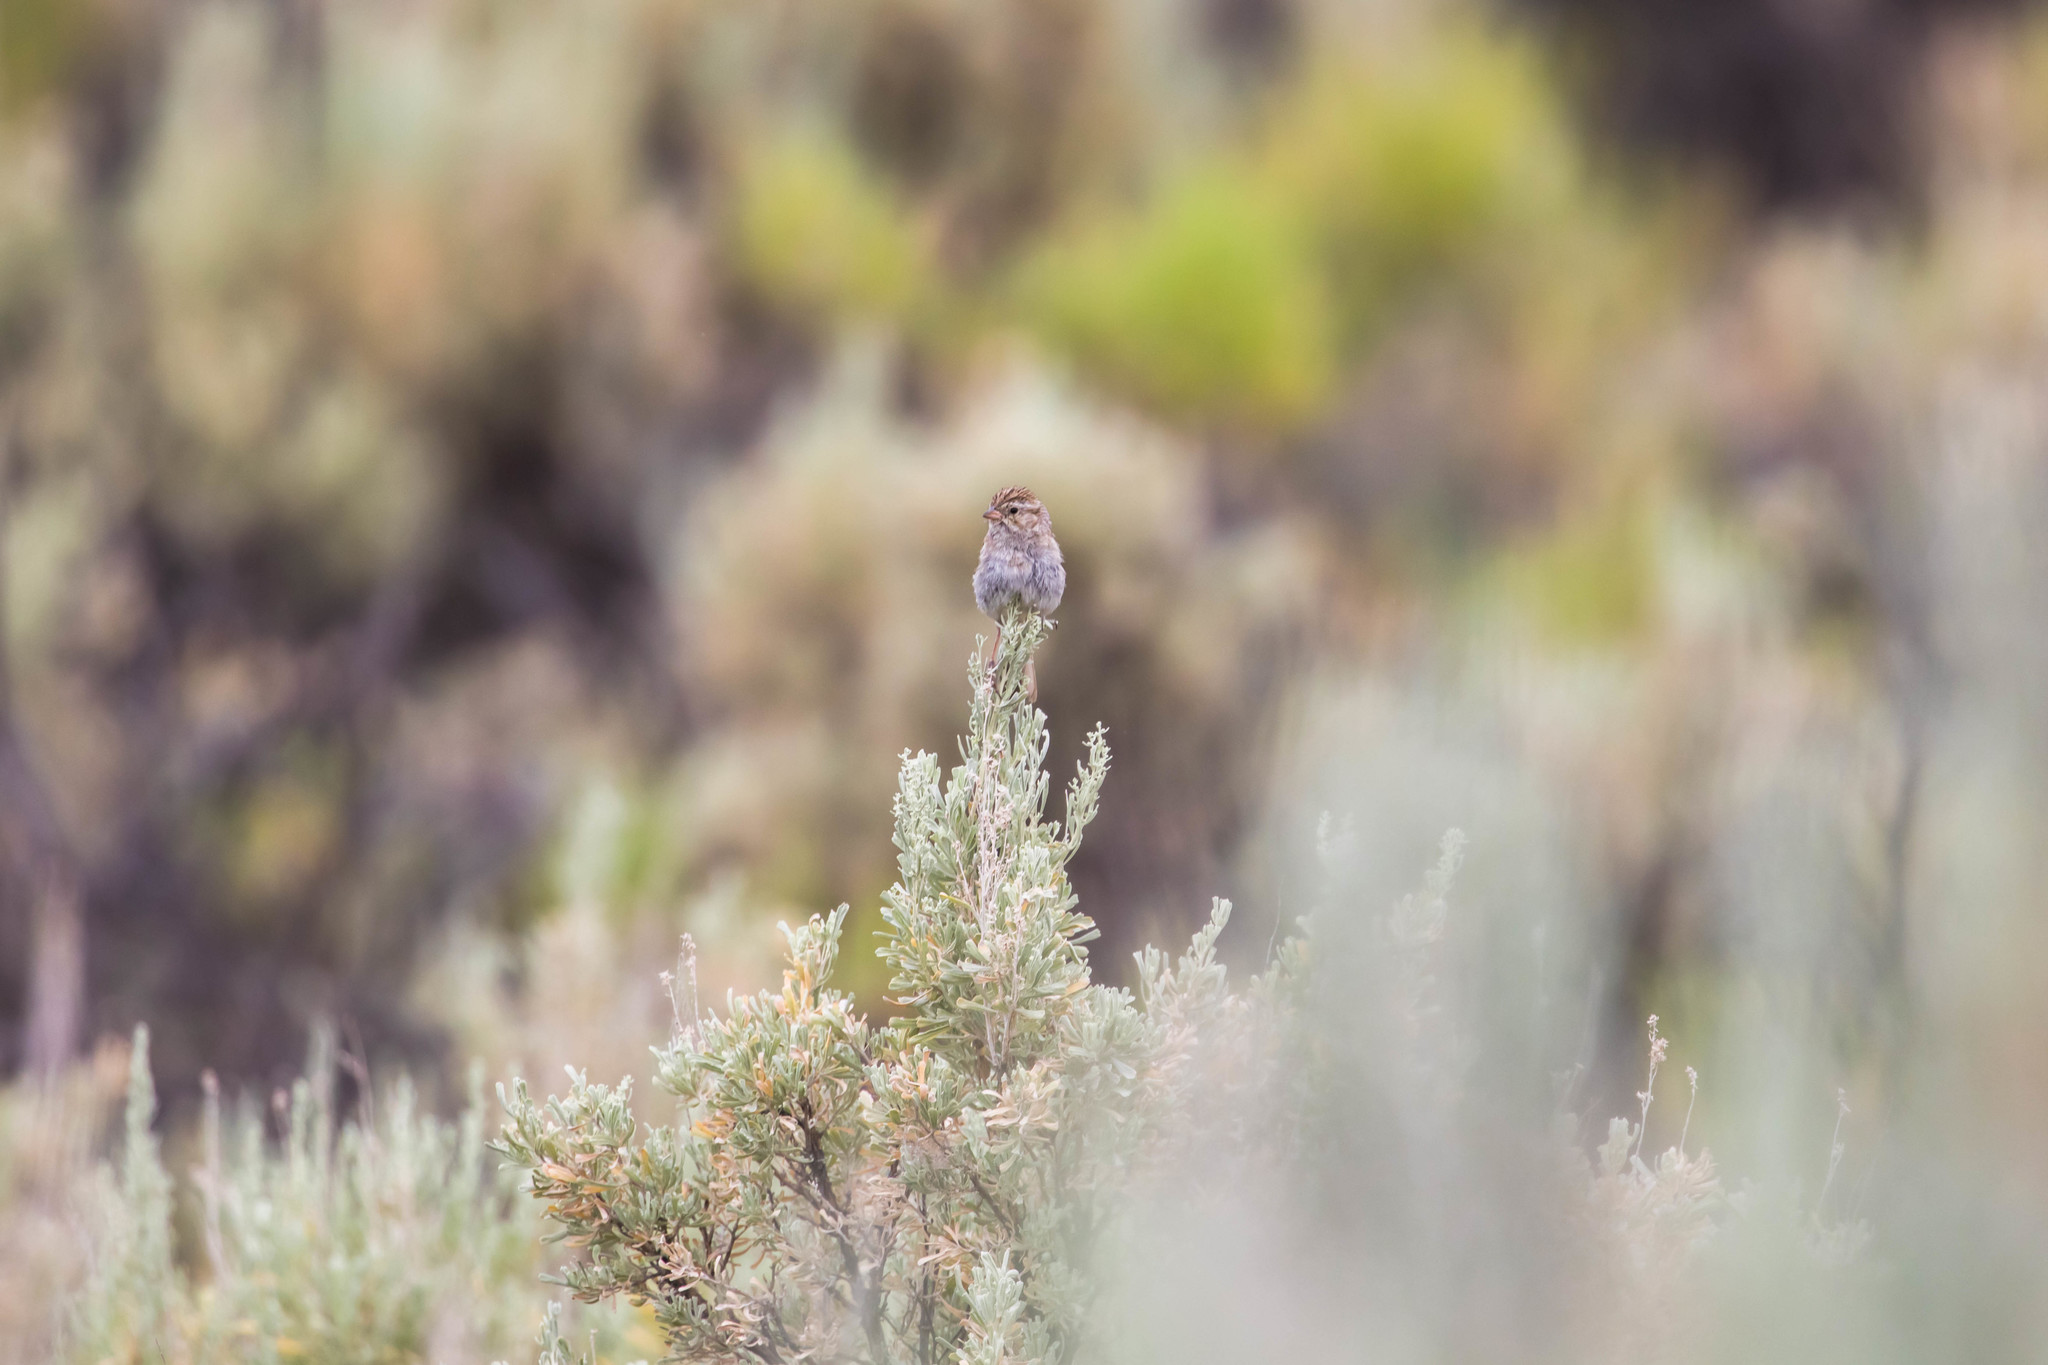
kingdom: Animalia
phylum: Chordata
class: Aves
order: Passeriformes
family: Passerellidae
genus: Spizella
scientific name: Spizella breweri
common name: Brewer's sparrow
